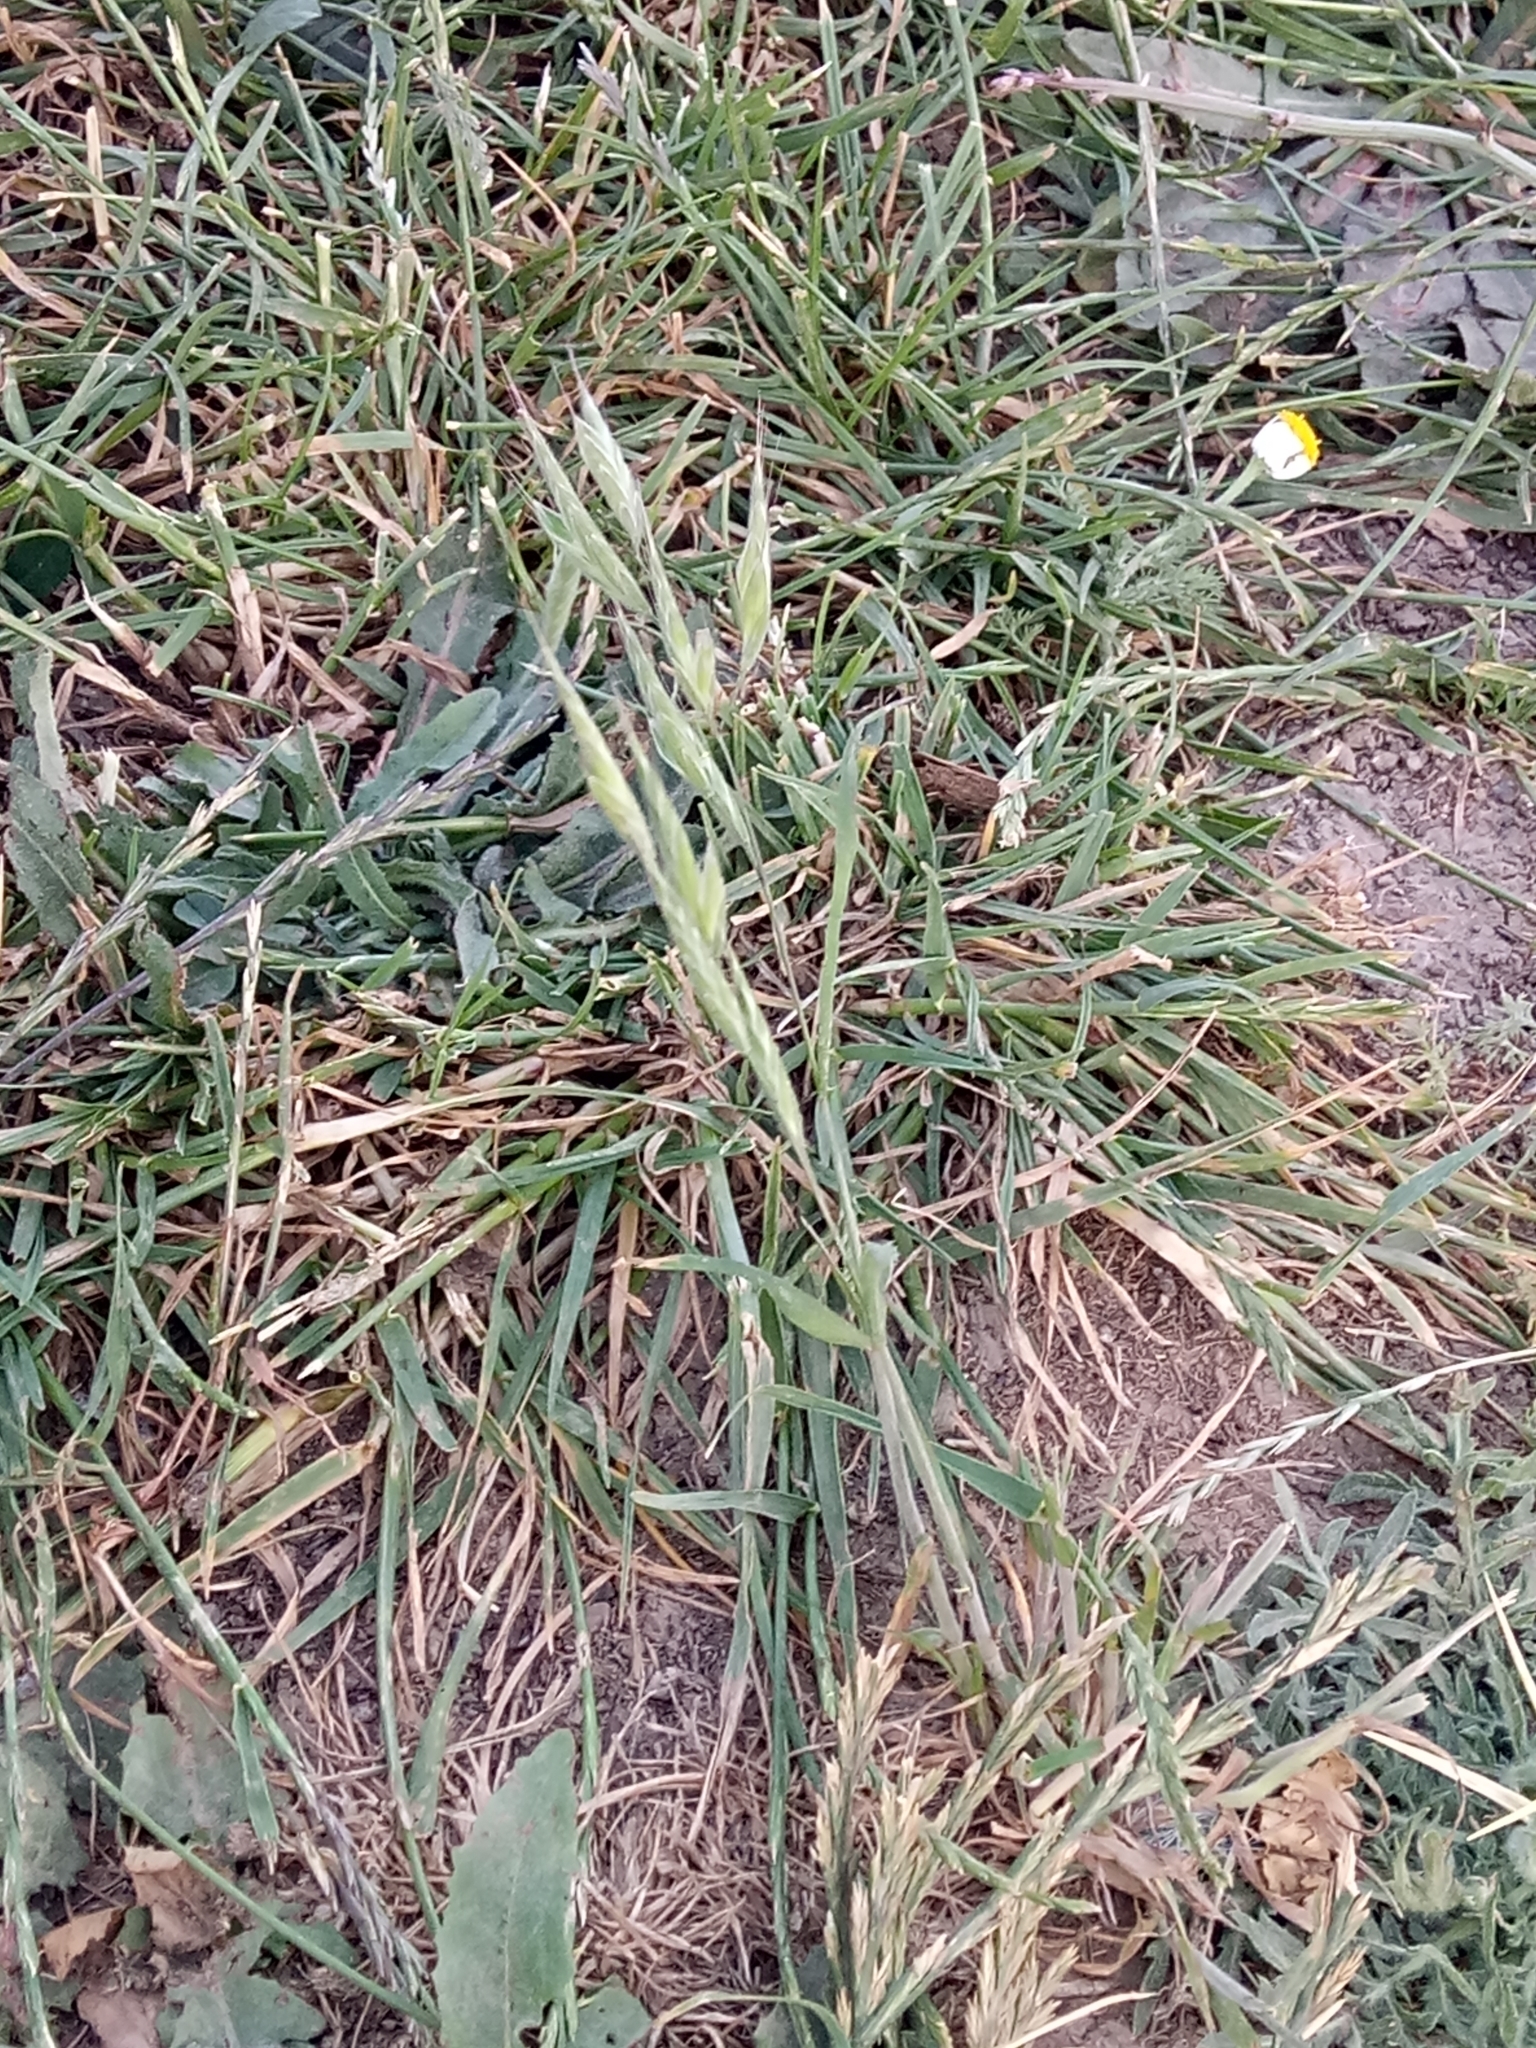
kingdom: Plantae
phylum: Tracheophyta
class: Liliopsida
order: Poales
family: Poaceae
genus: Bromus
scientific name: Bromus hordeaceus
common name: Soft brome
